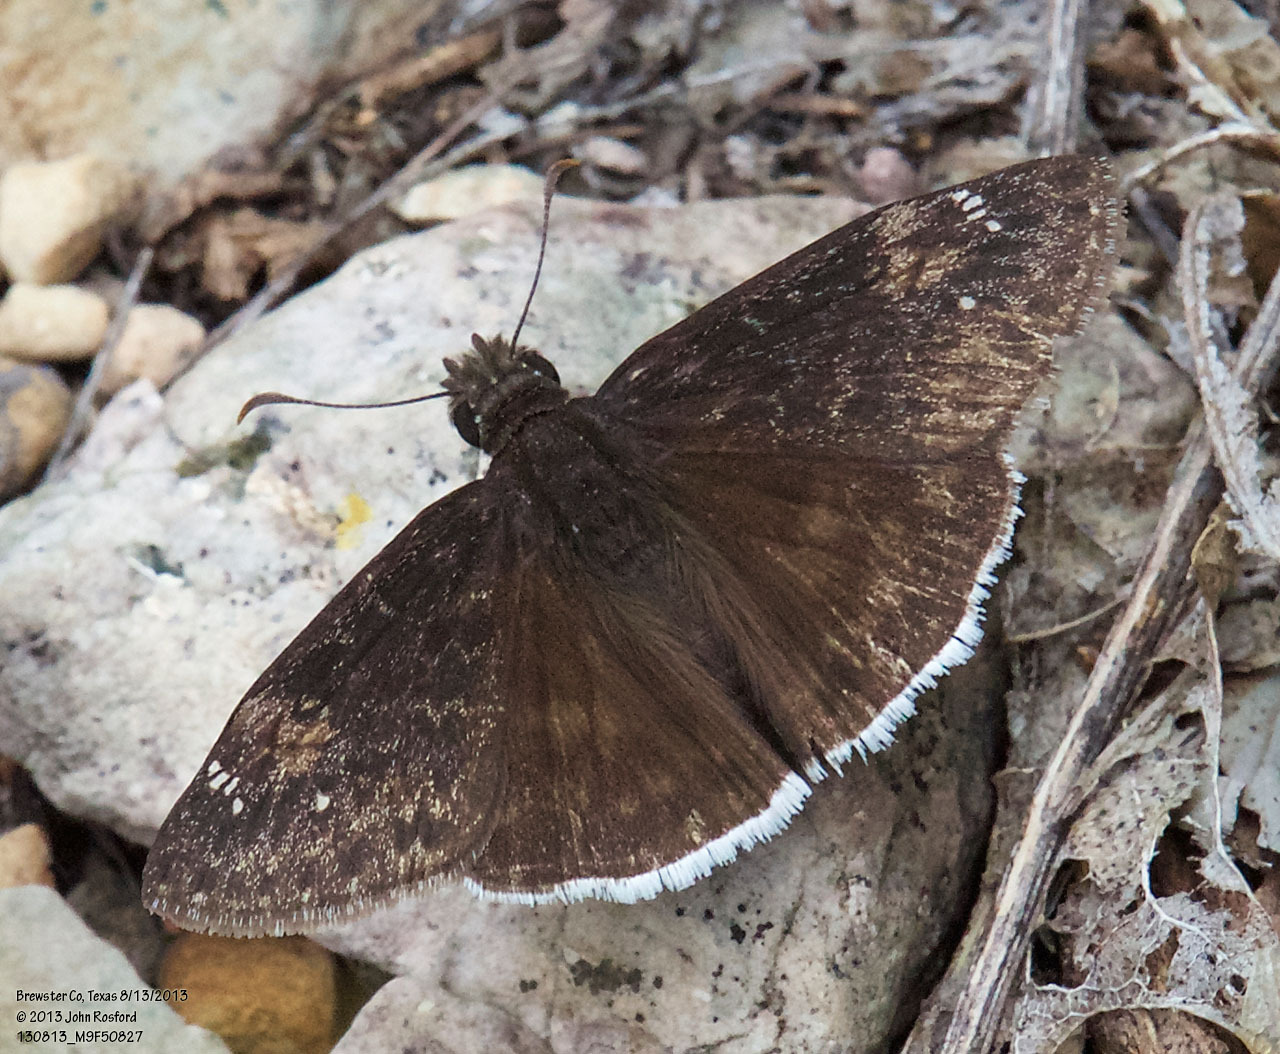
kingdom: Animalia
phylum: Arthropoda
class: Insecta
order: Lepidoptera
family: Hesperiidae
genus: Erynnis
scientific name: Erynnis funeralis
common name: Funereal duskywing
